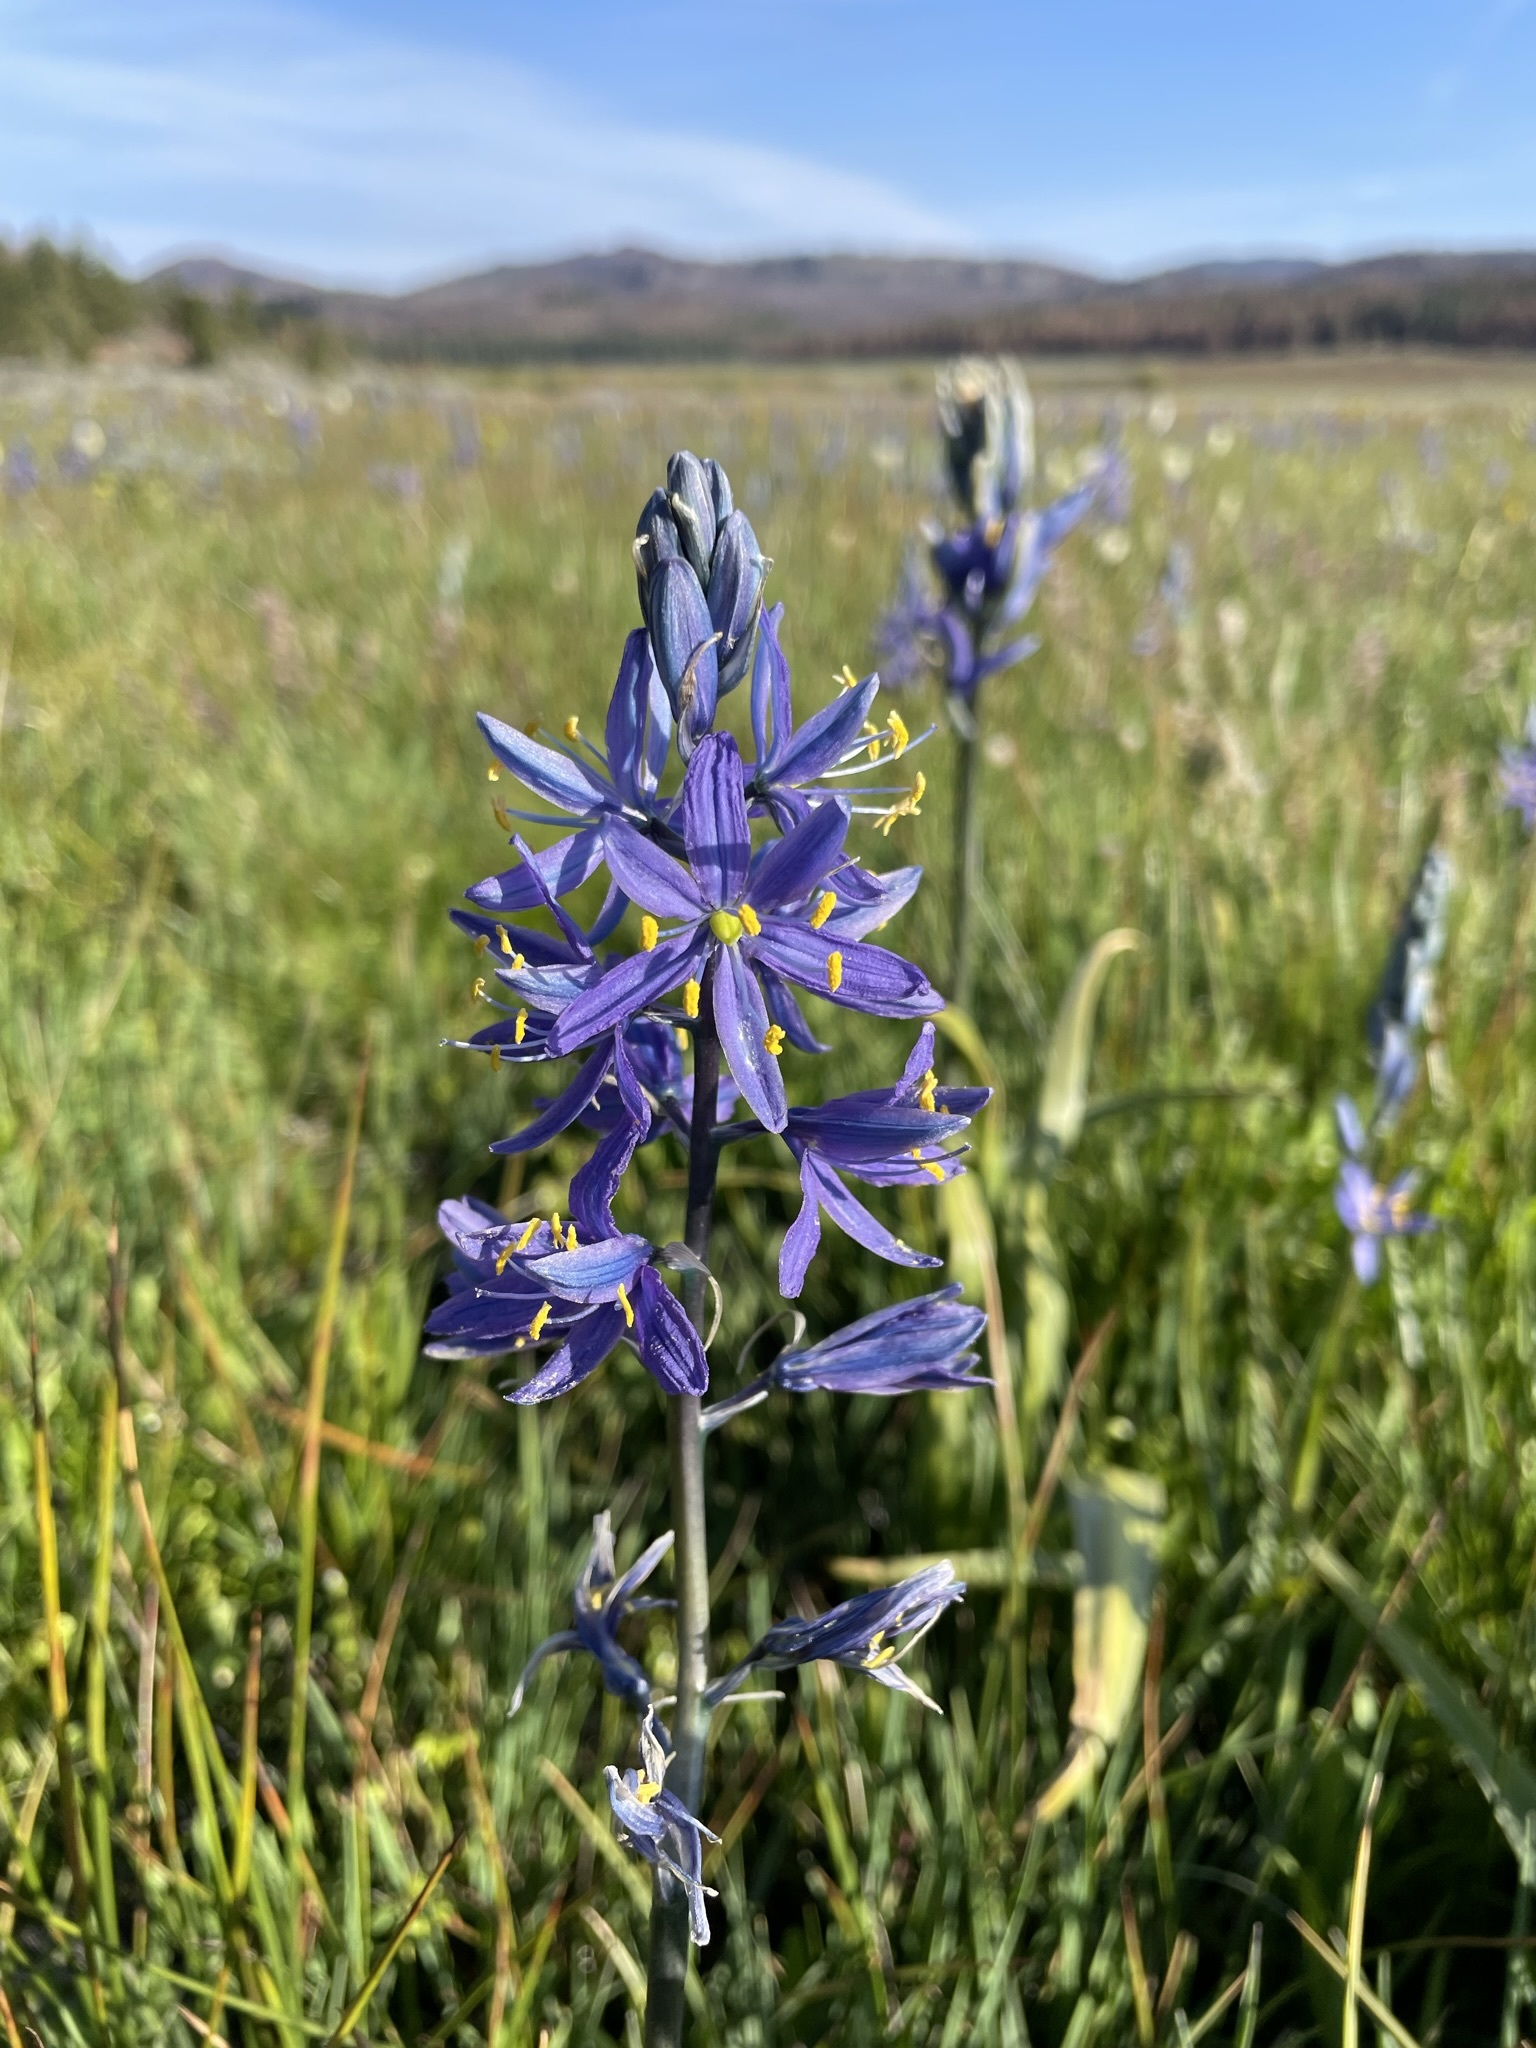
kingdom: Plantae
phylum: Tracheophyta
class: Liliopsida
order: Asparagales
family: Asparagaceae
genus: Camassia
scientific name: Camassia quamash
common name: Common camas
